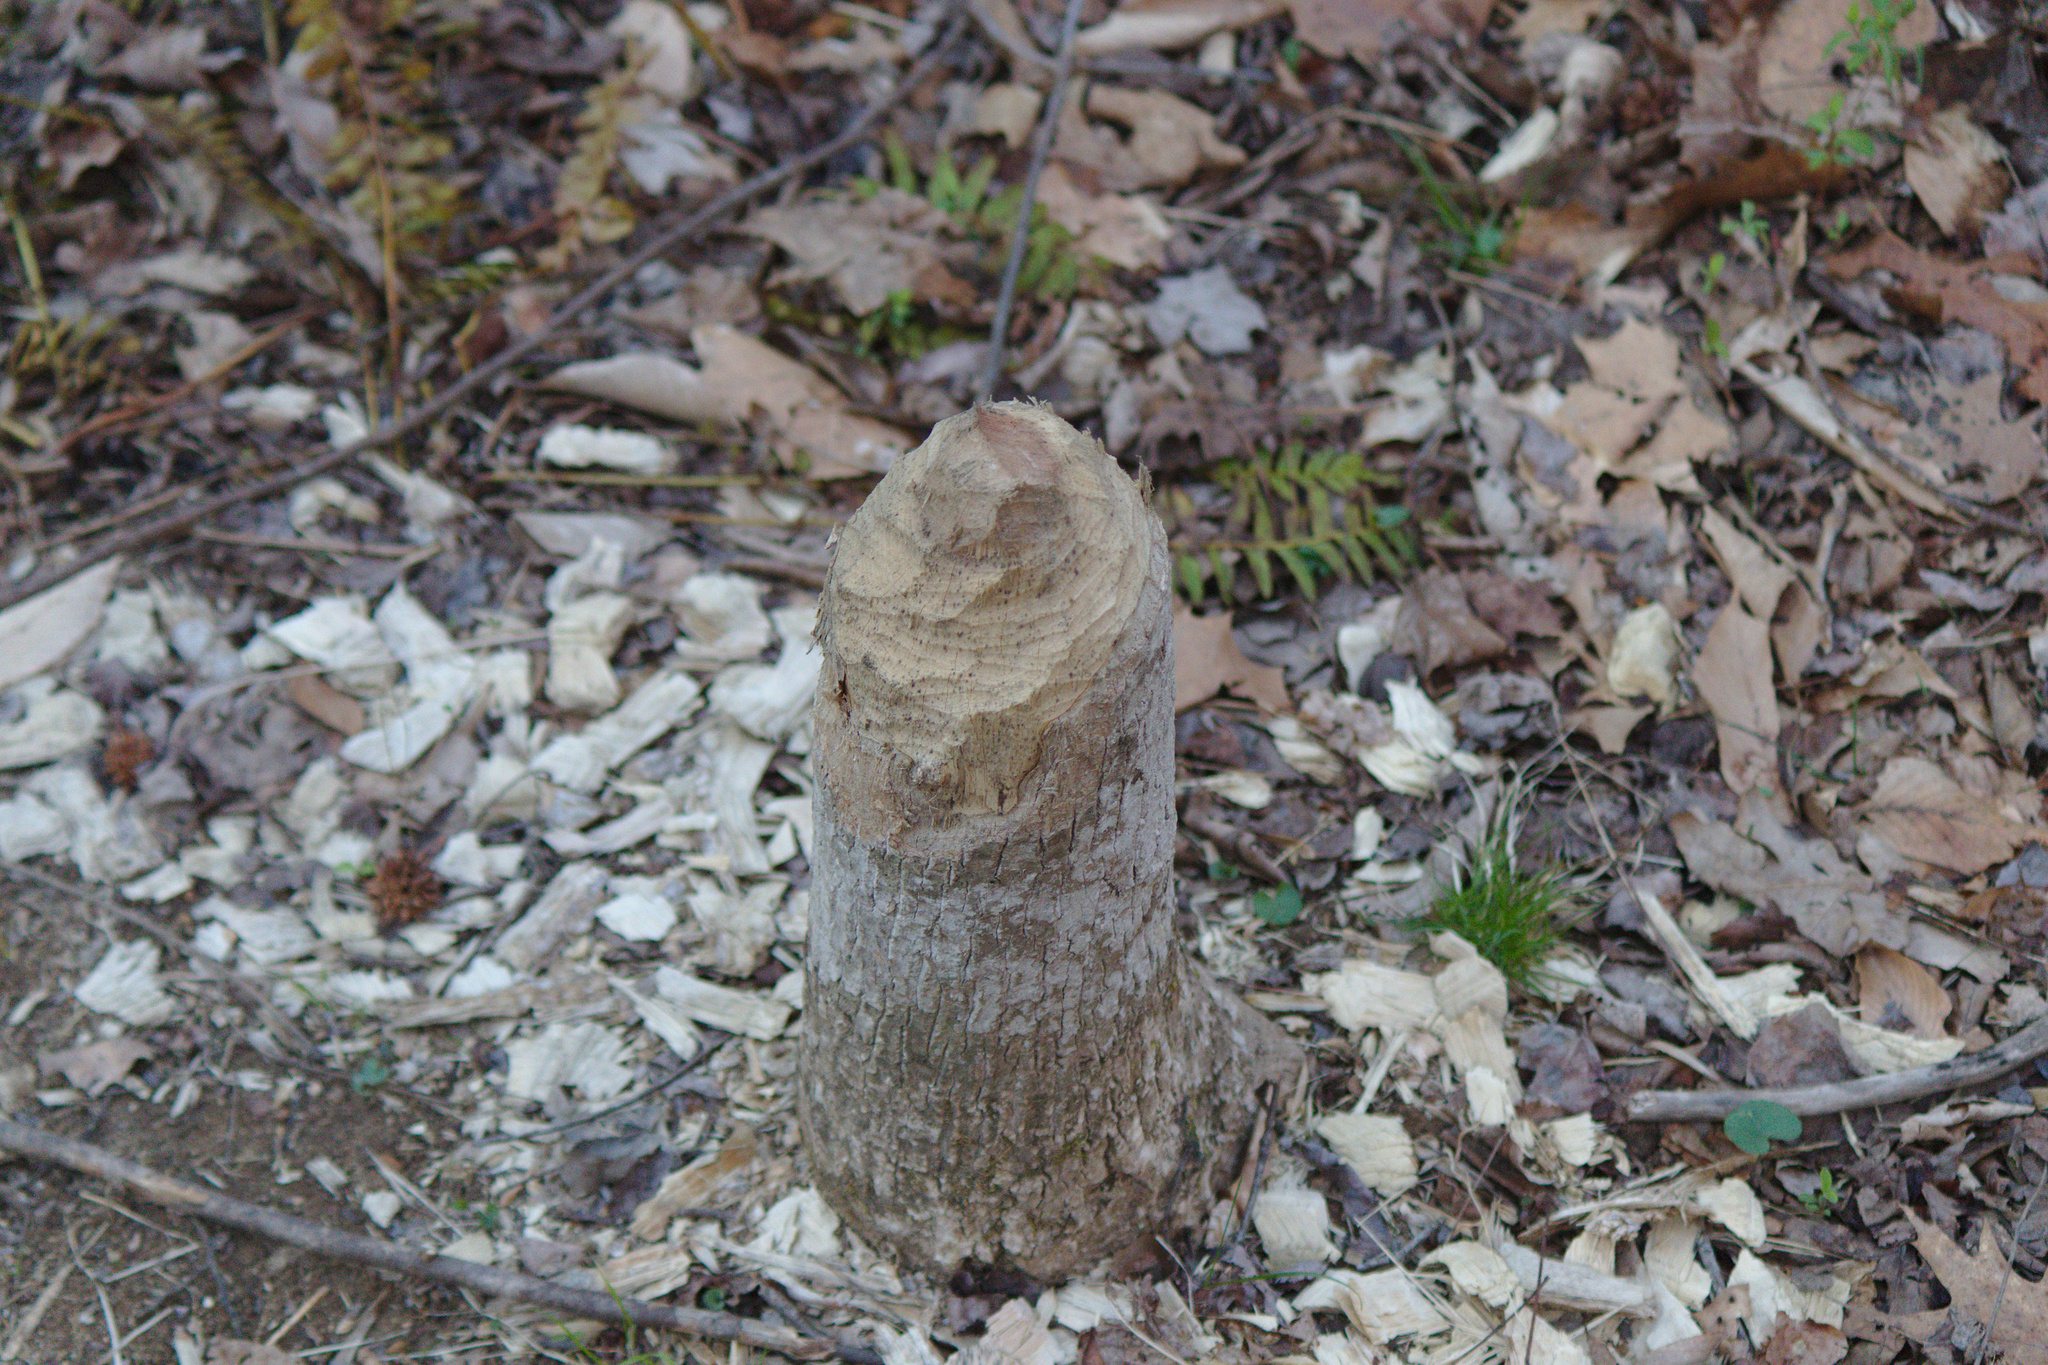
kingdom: Animalia
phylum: Chordata
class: Mammalia
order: Rodentia
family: Castoridae
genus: Castor
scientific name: Castor canadensis
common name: American beaver
